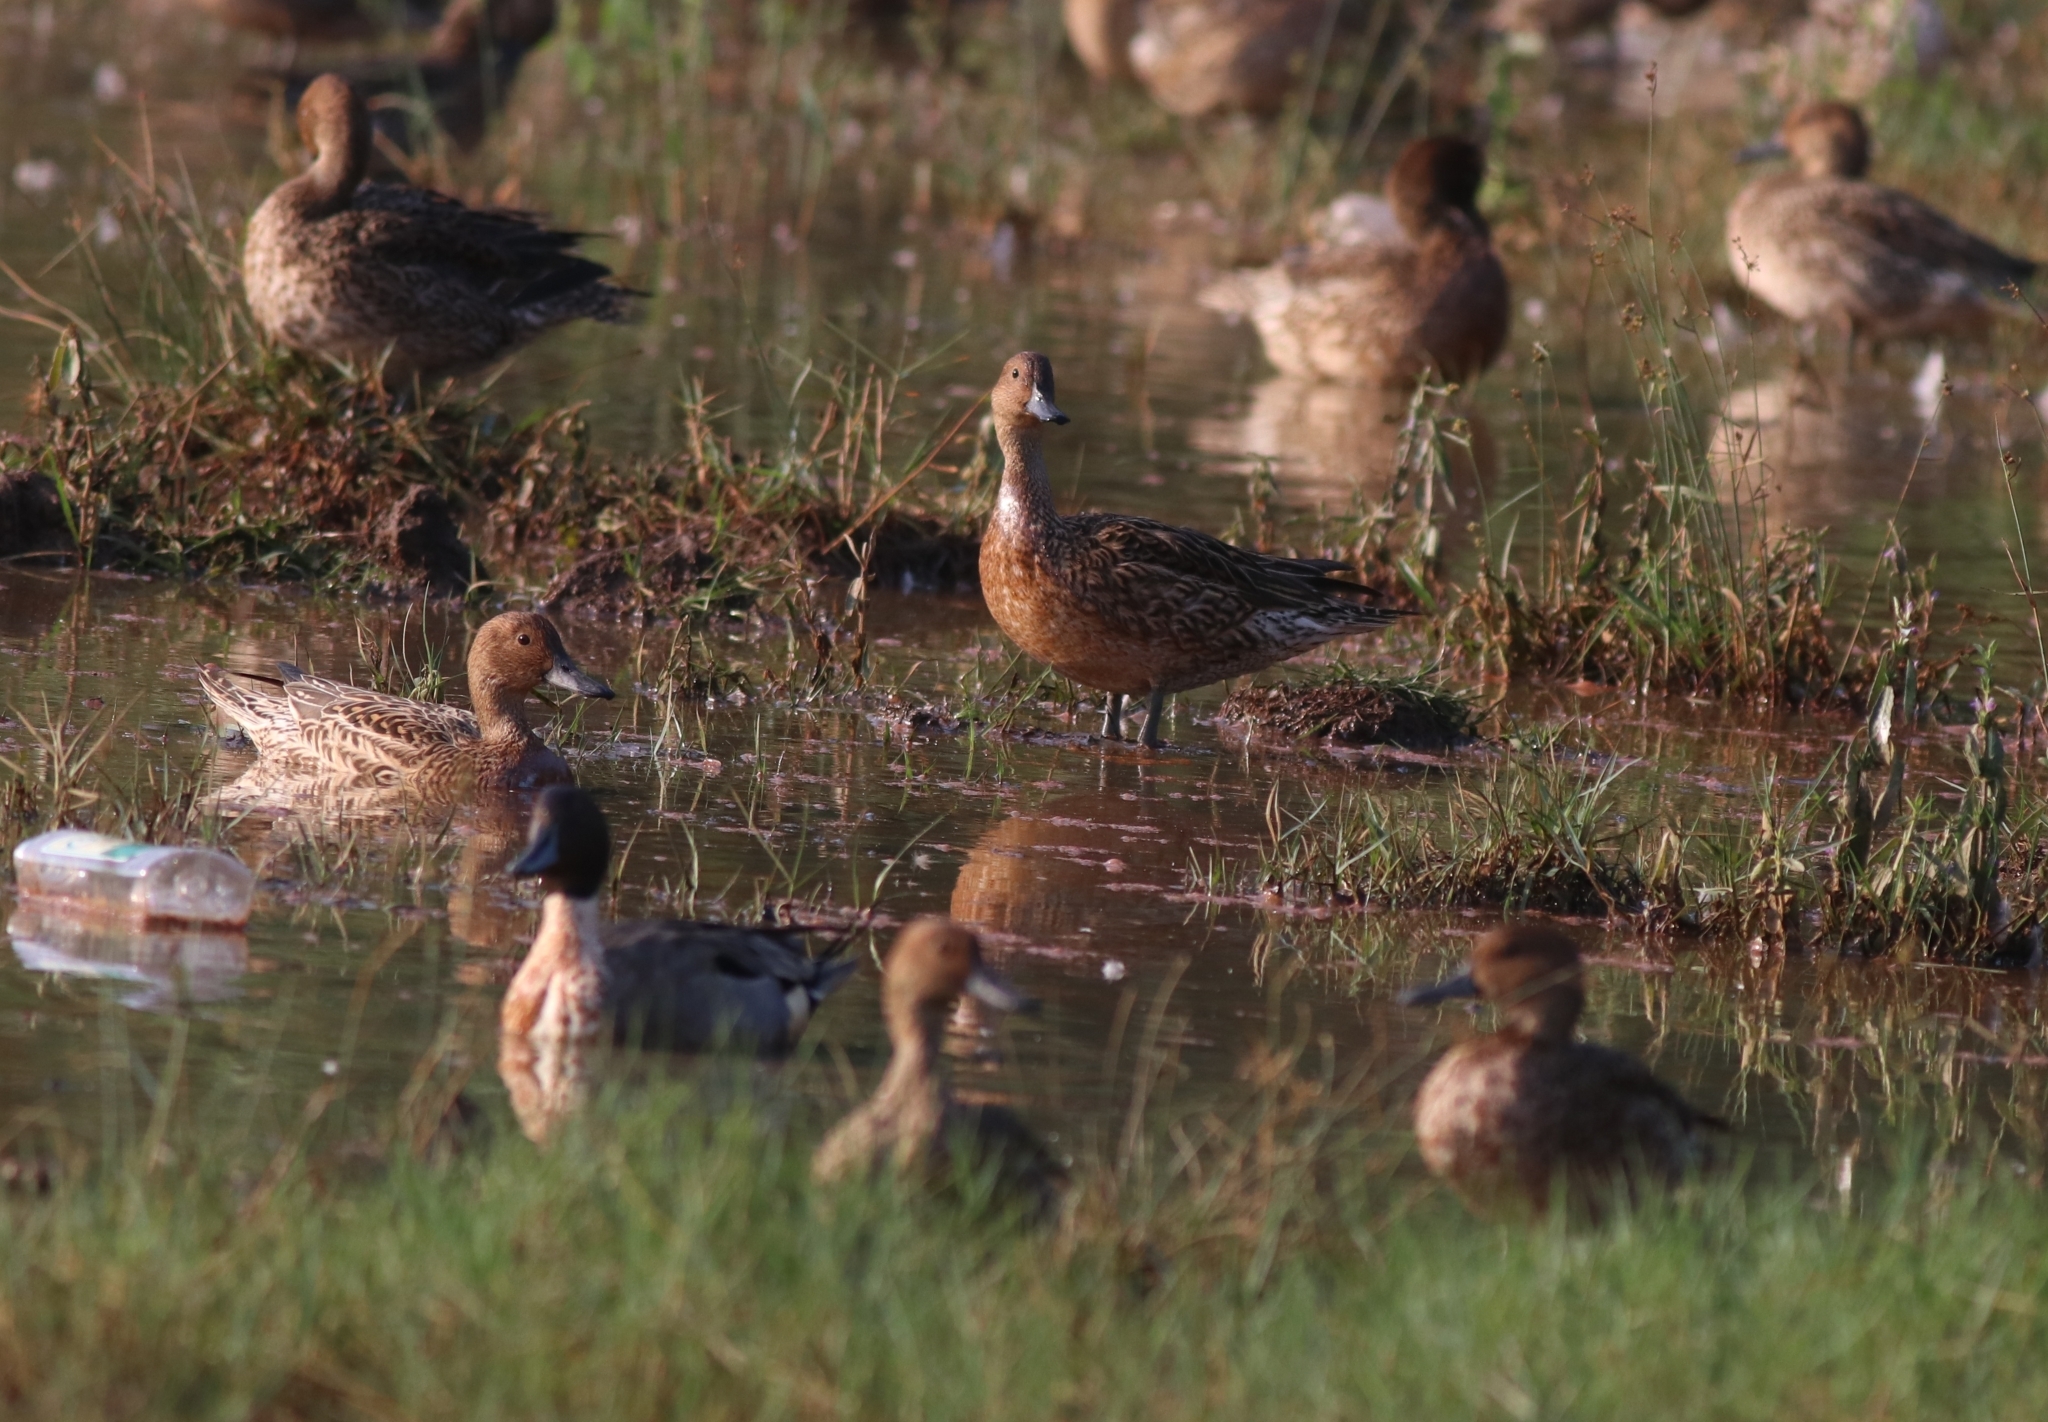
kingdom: Animalia
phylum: Chordata
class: Aves
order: Anseriformes
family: Anatidae
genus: Anas
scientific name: Anas acuta
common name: Northern pintail
